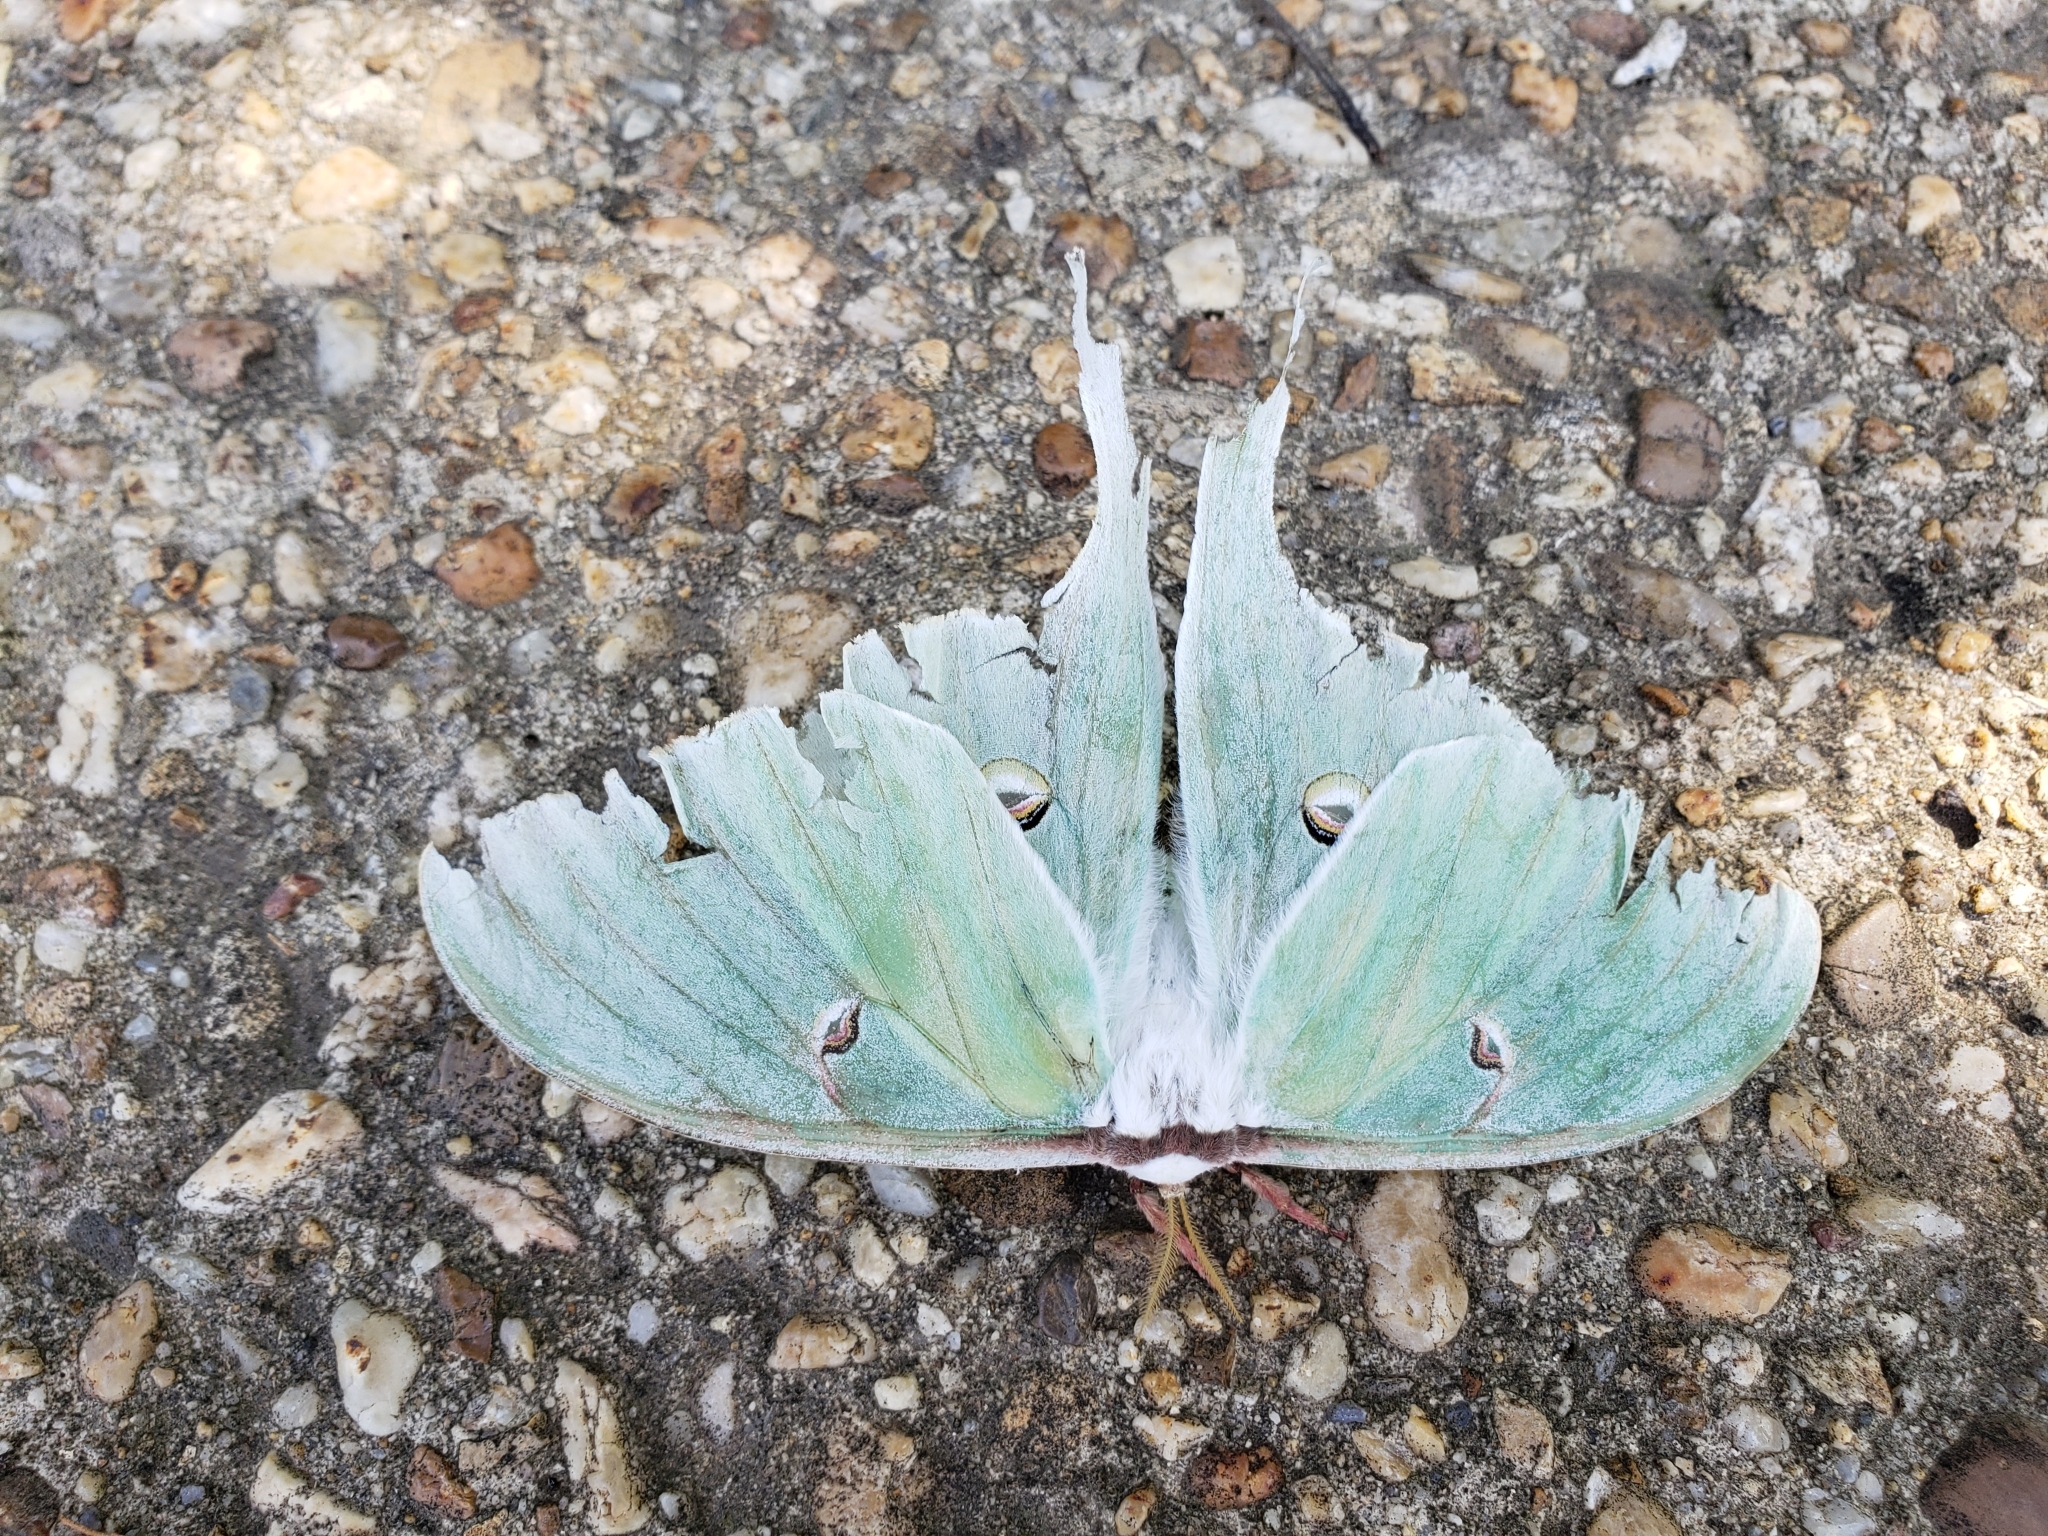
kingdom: Animalia
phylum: Arthropoda
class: Insecta
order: Lepidoptera
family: Saturniidae
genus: Actias
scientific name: Actias luna
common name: Luna moth
